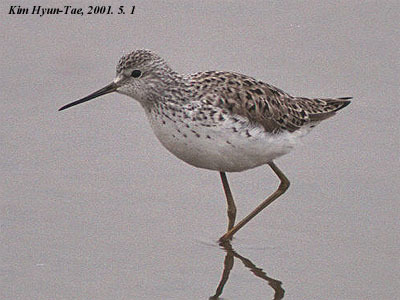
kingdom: Animalia
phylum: Chordata
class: Aves
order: Charadriiformes
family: Scolopacidae
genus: Tringa
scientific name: Tringa stagnatilis
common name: Marsh sandpiper
